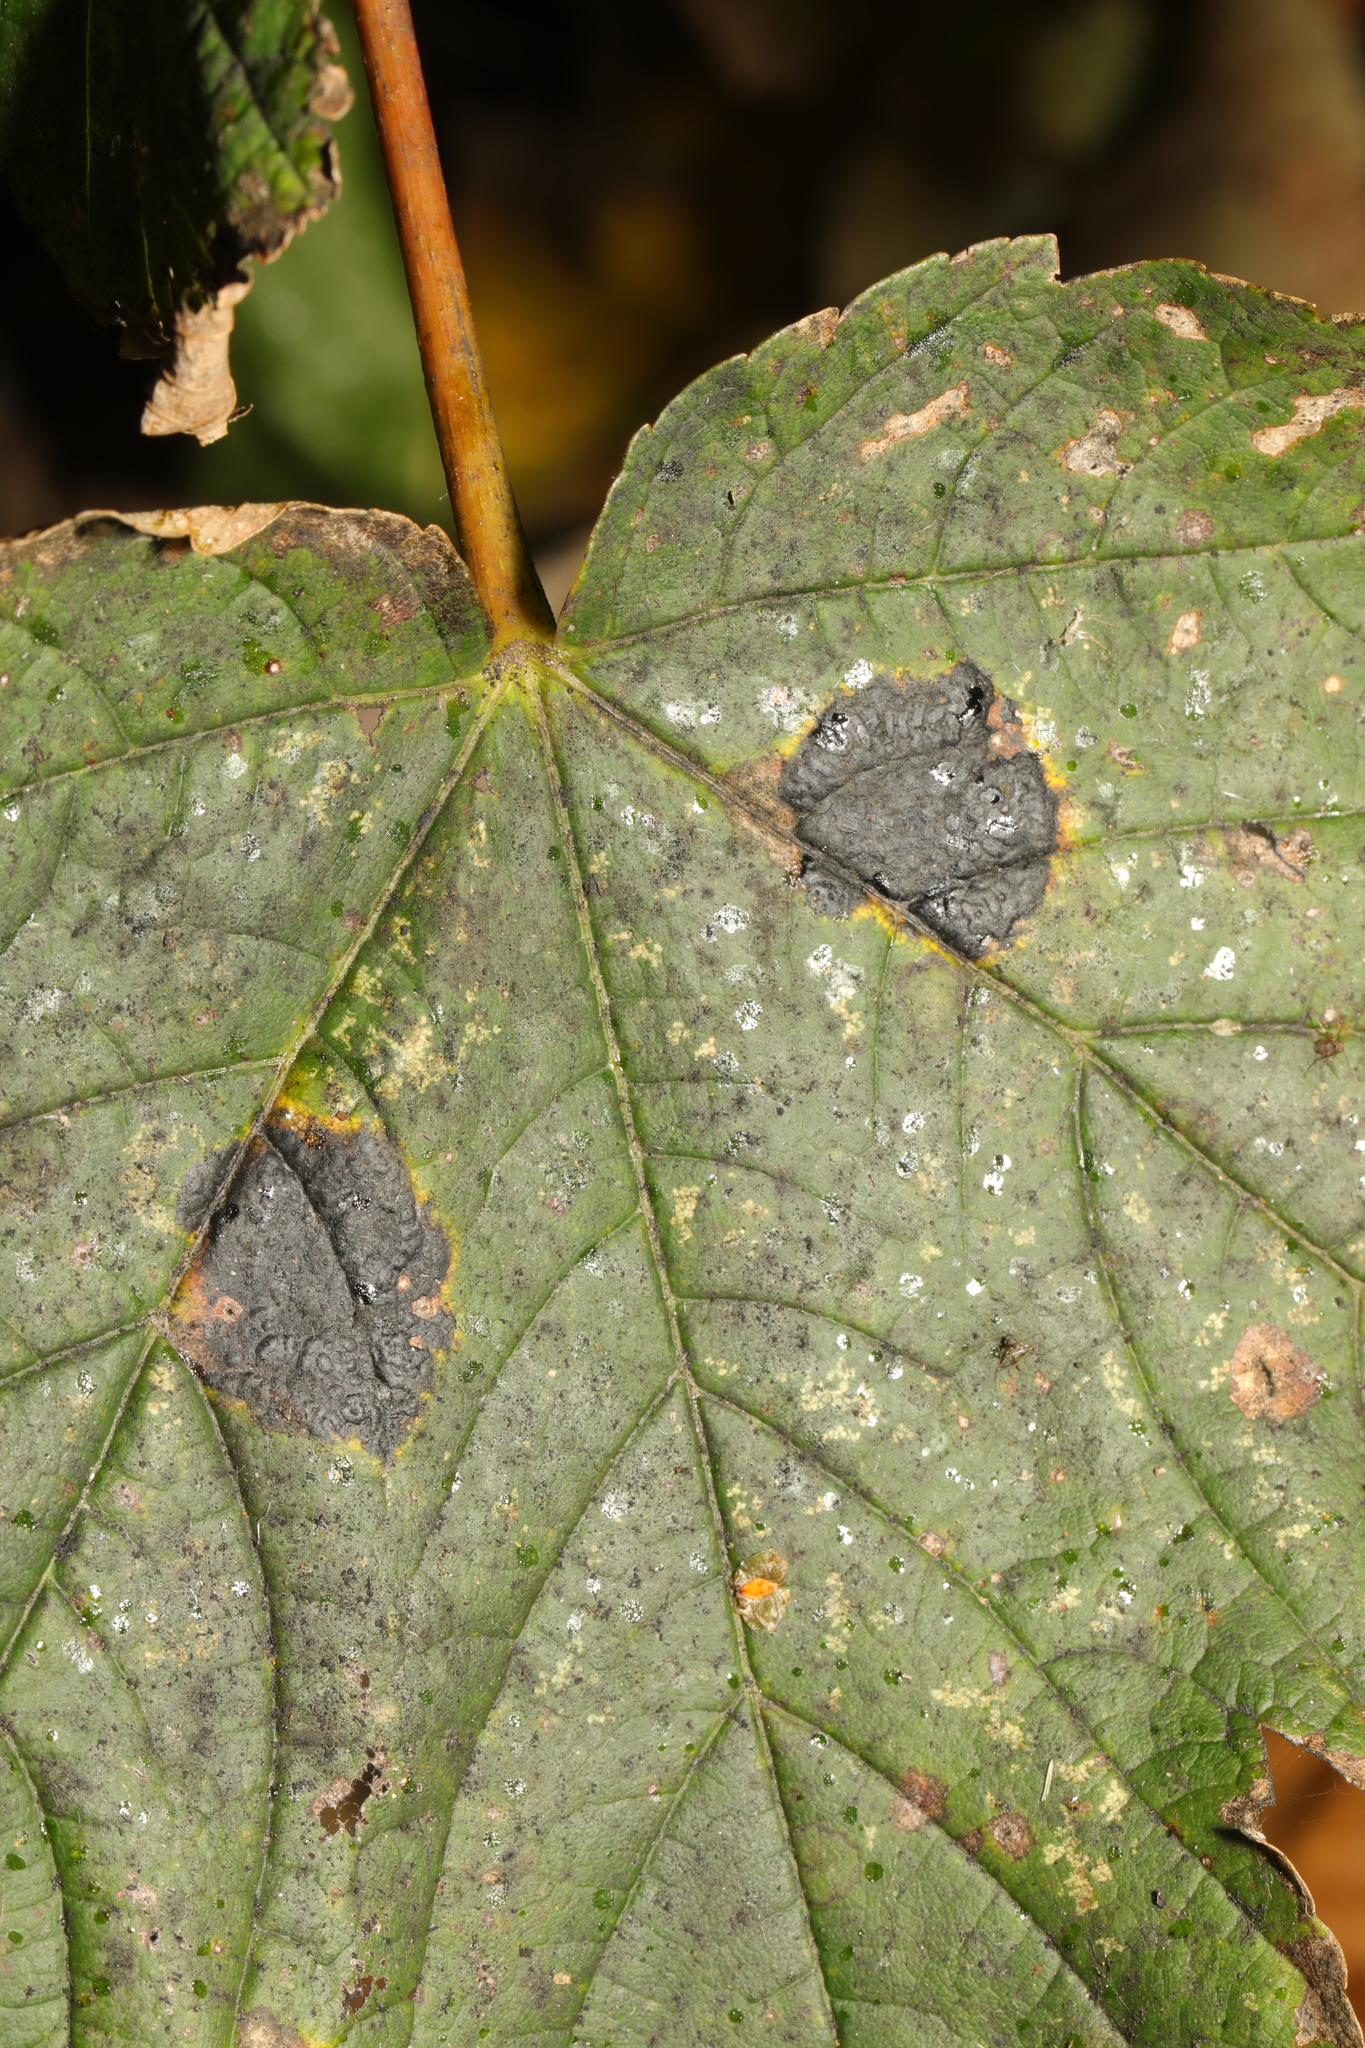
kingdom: Fungi
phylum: Ascomycota
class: Leotiomycetes
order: Rhytismatales
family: Rhytismataceae
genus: Rhytisma
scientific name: Rhytisma acerinum
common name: European tar spot
